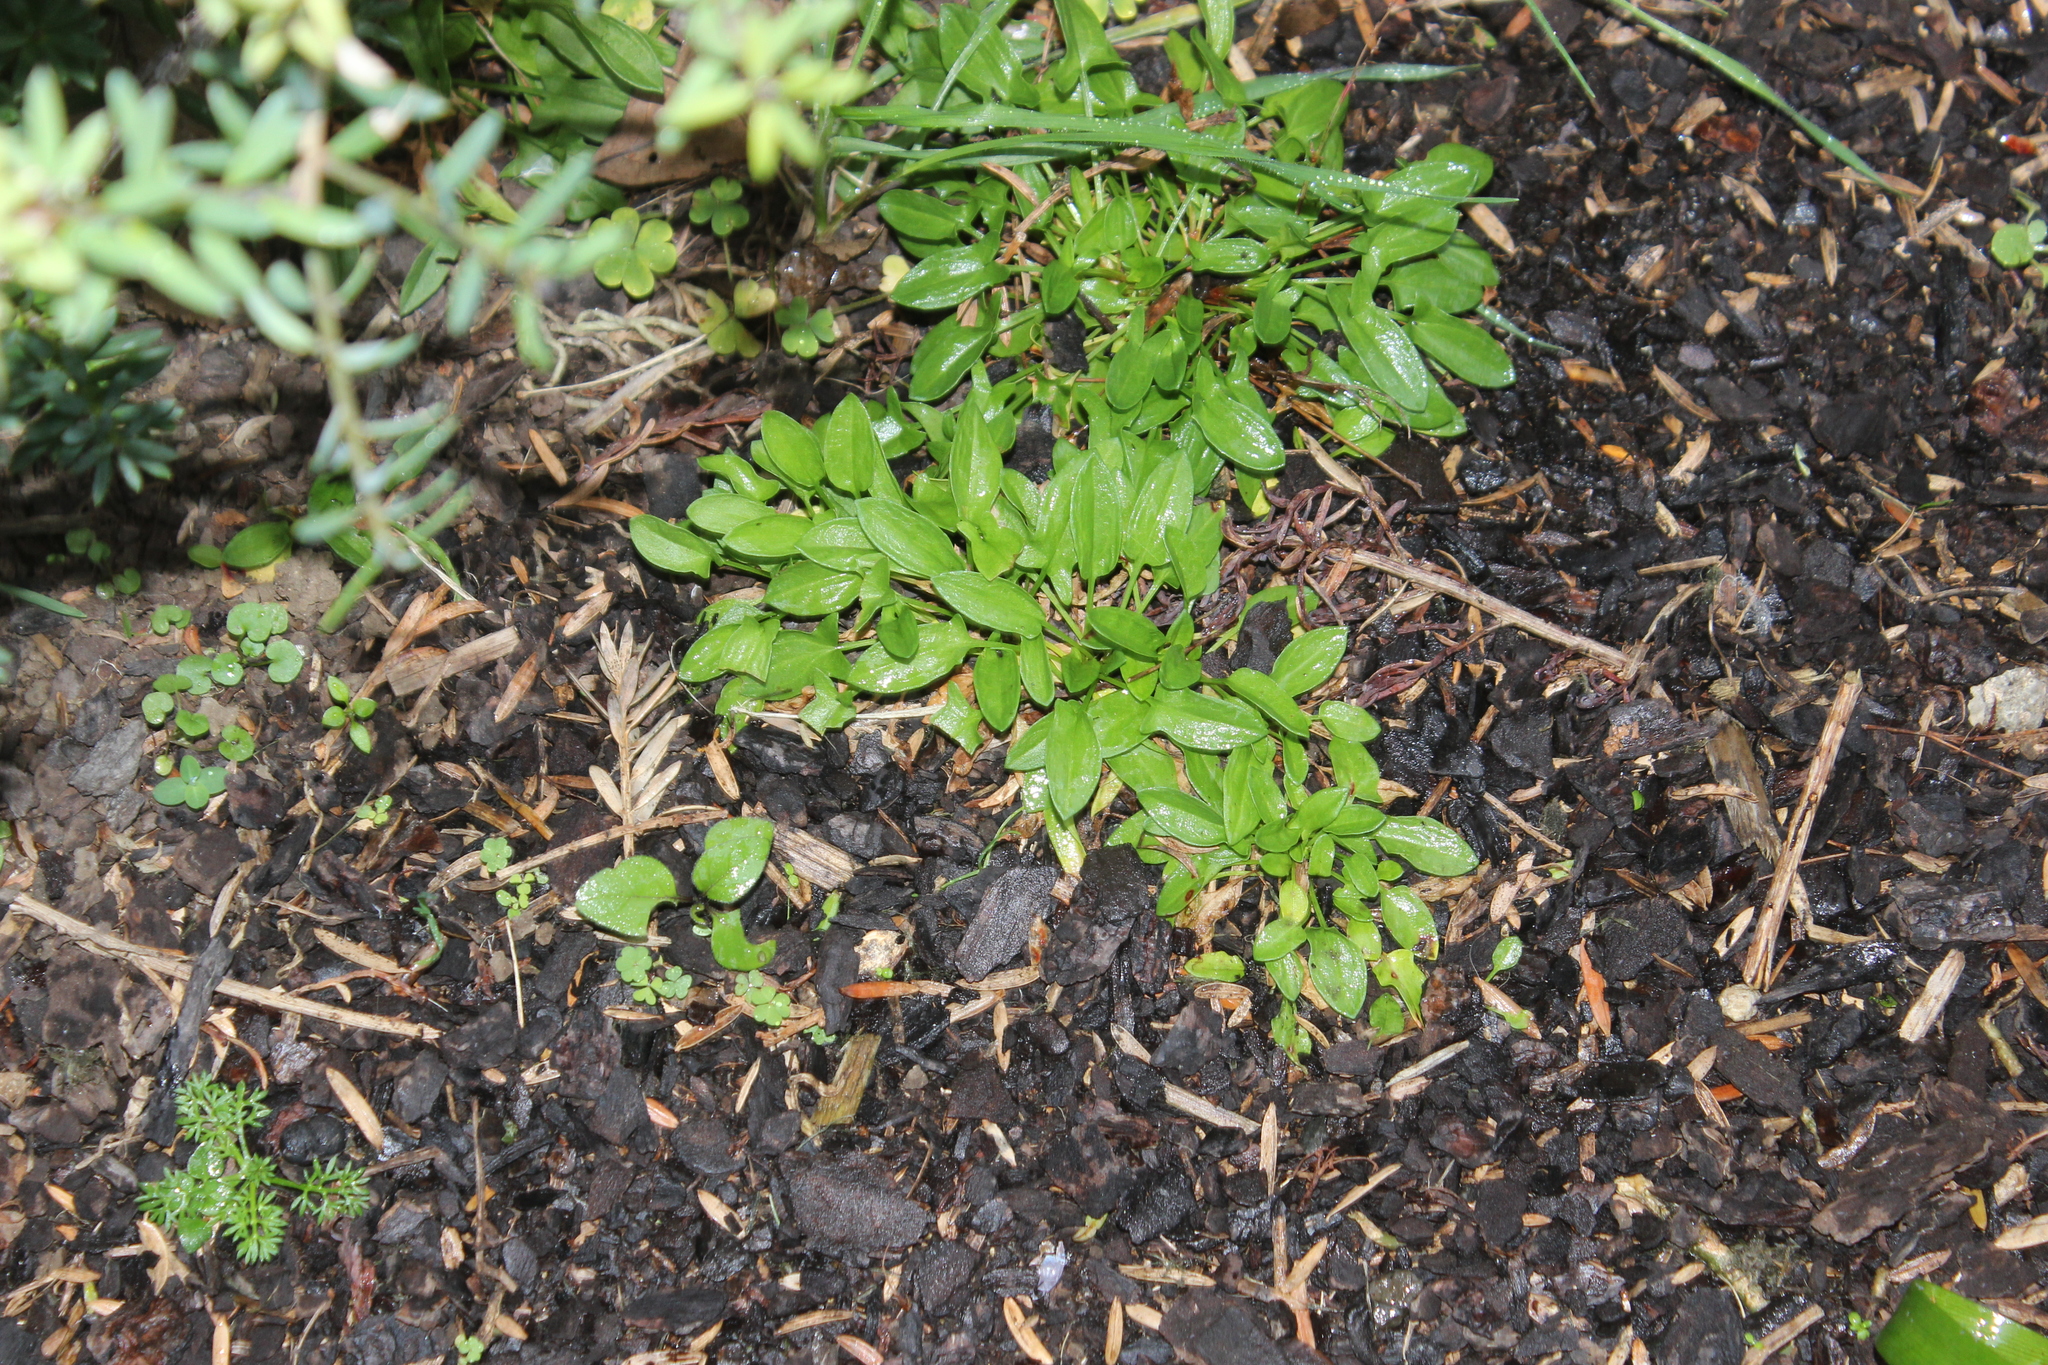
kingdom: Plantae
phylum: Tracheophyta
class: Magnoliopsida
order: Caryophyllales
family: Polygonaceae
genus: Rumex
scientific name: Rumex acetosella
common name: Common sheep sorrel
